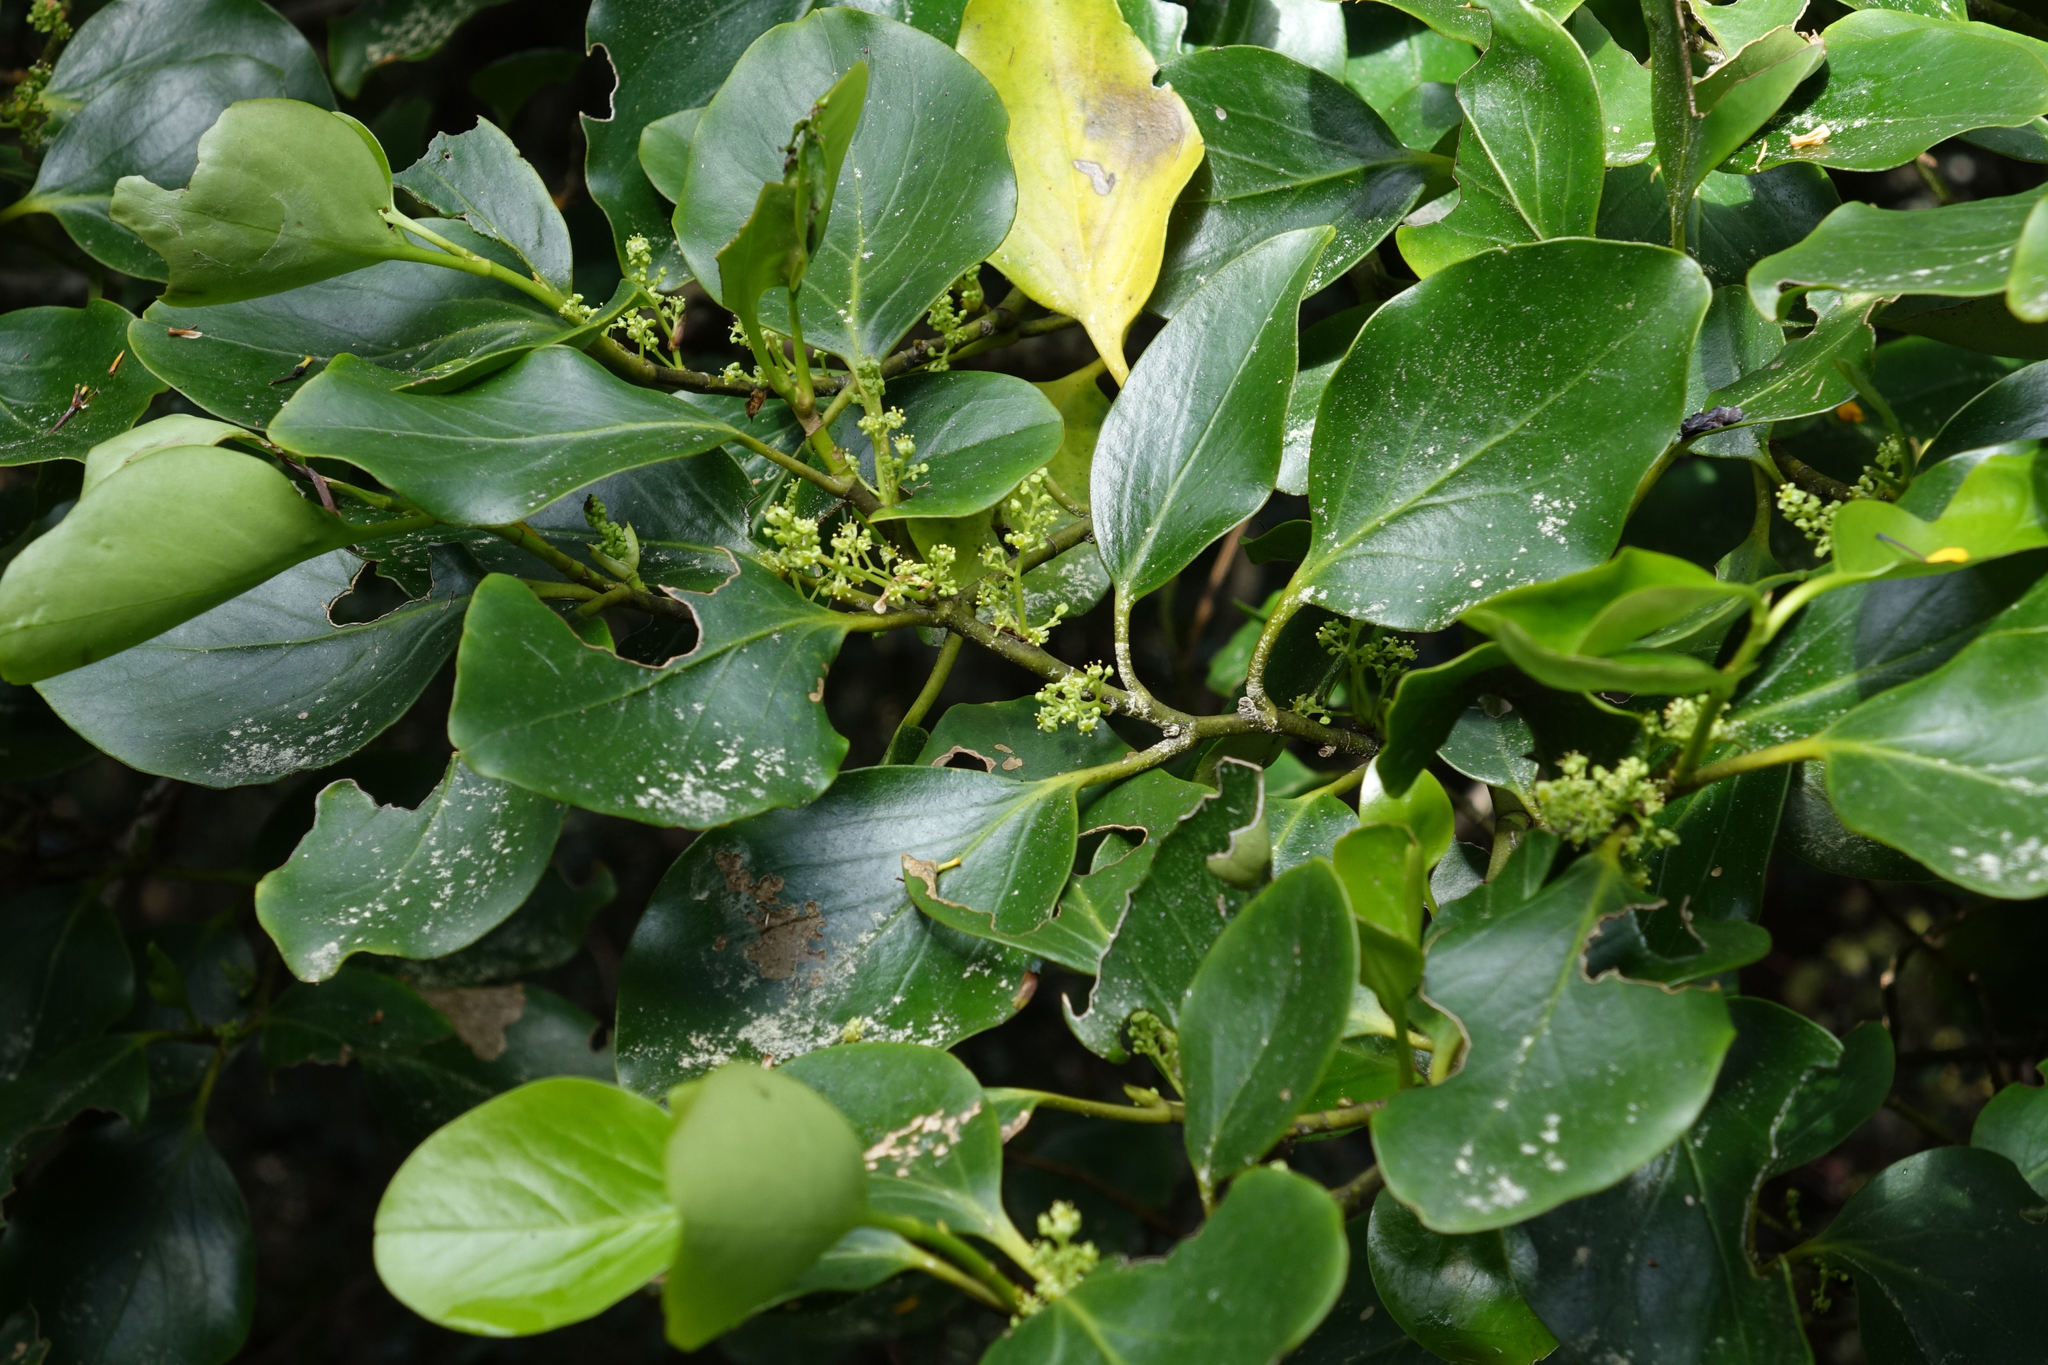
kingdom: Plantae
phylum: Tracheophyta
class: Magnoliopsida
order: Apiales
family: Griseliniaceae
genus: Griselinia
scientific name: Griselinia littoralis
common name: New zealand broadleaf
